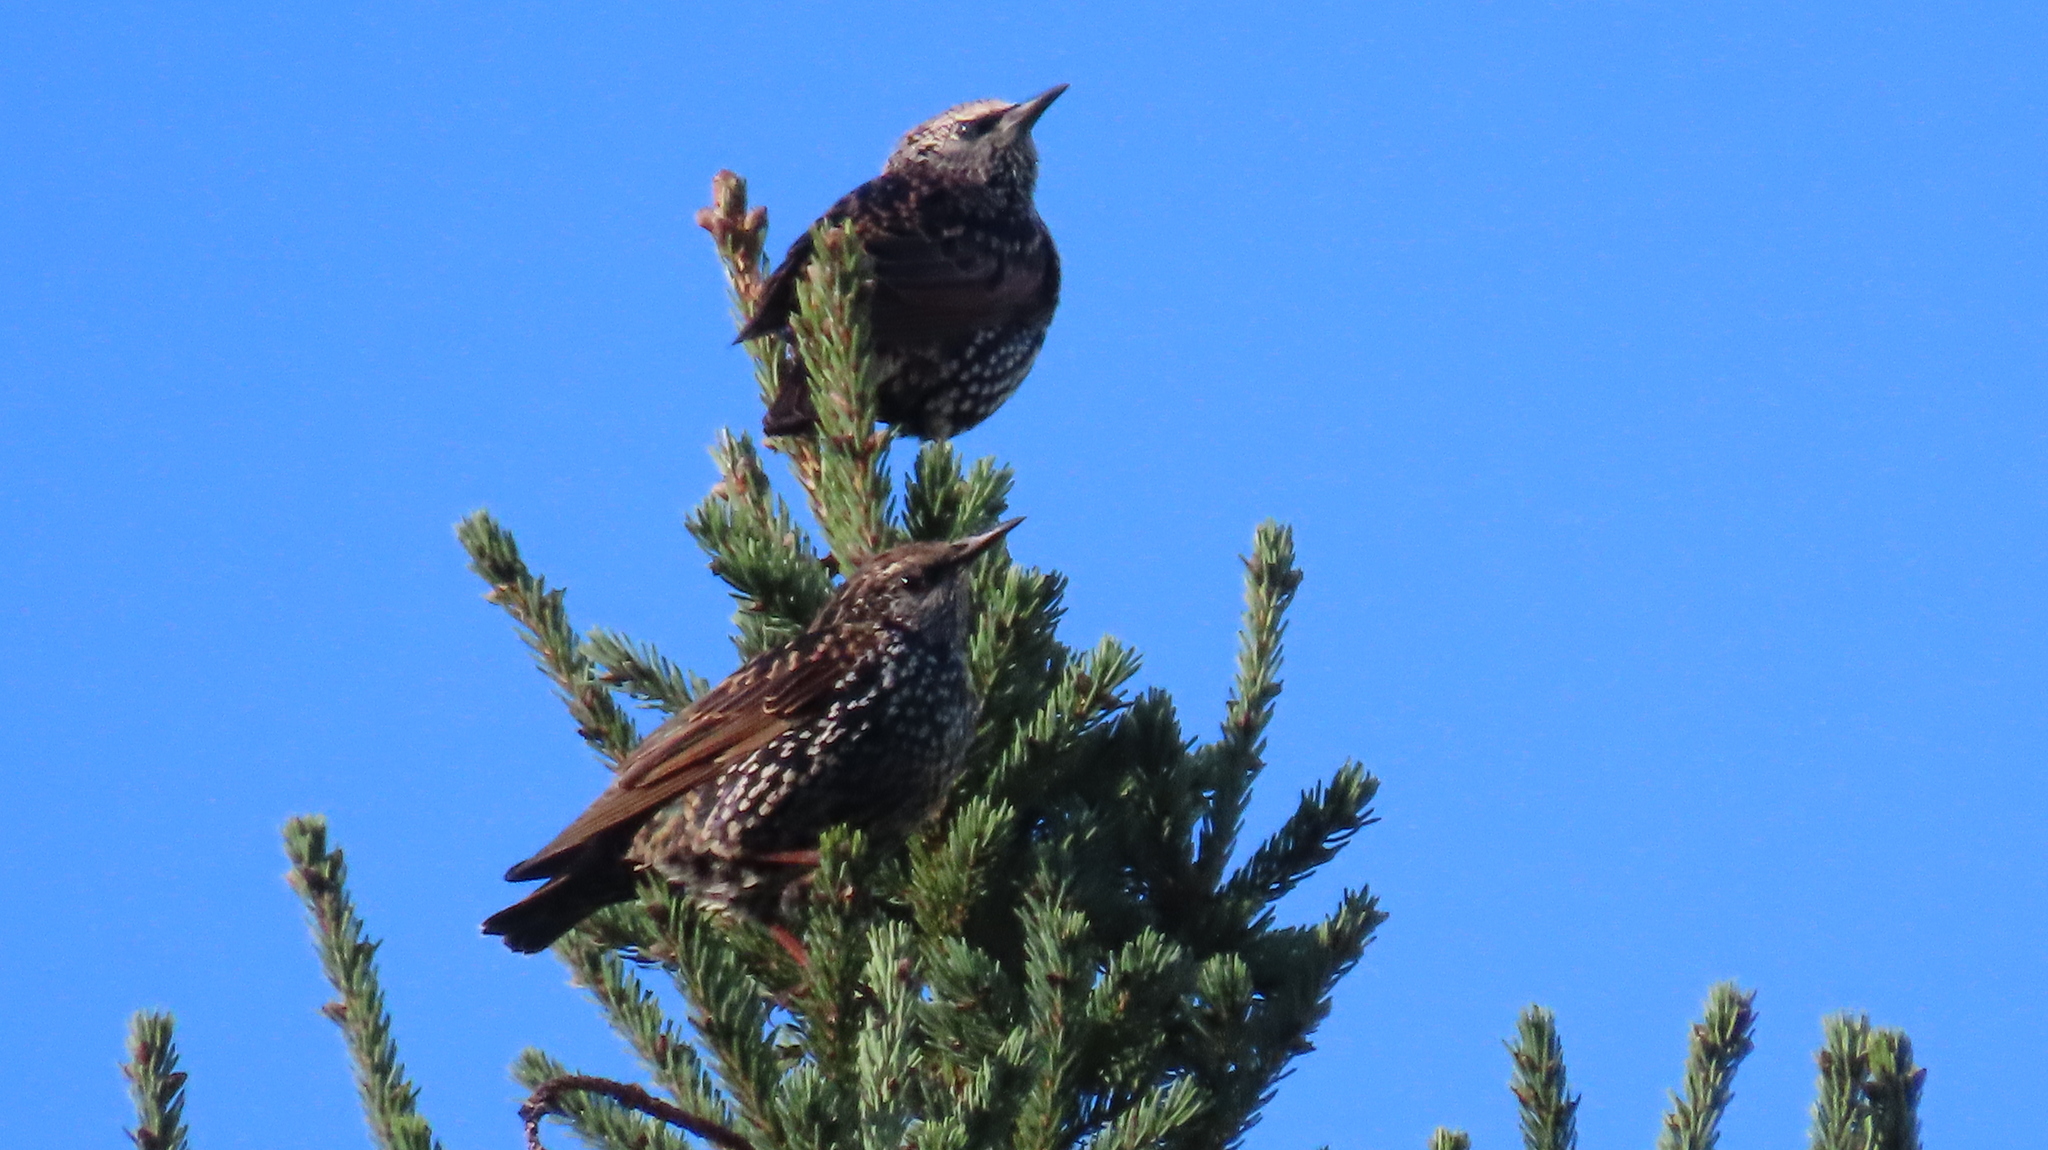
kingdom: Animalia
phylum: Chordata
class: Aves
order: Passeriformes
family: Sturnidae
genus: Sturnus
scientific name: Sturnus vulgaris
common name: Common starling
